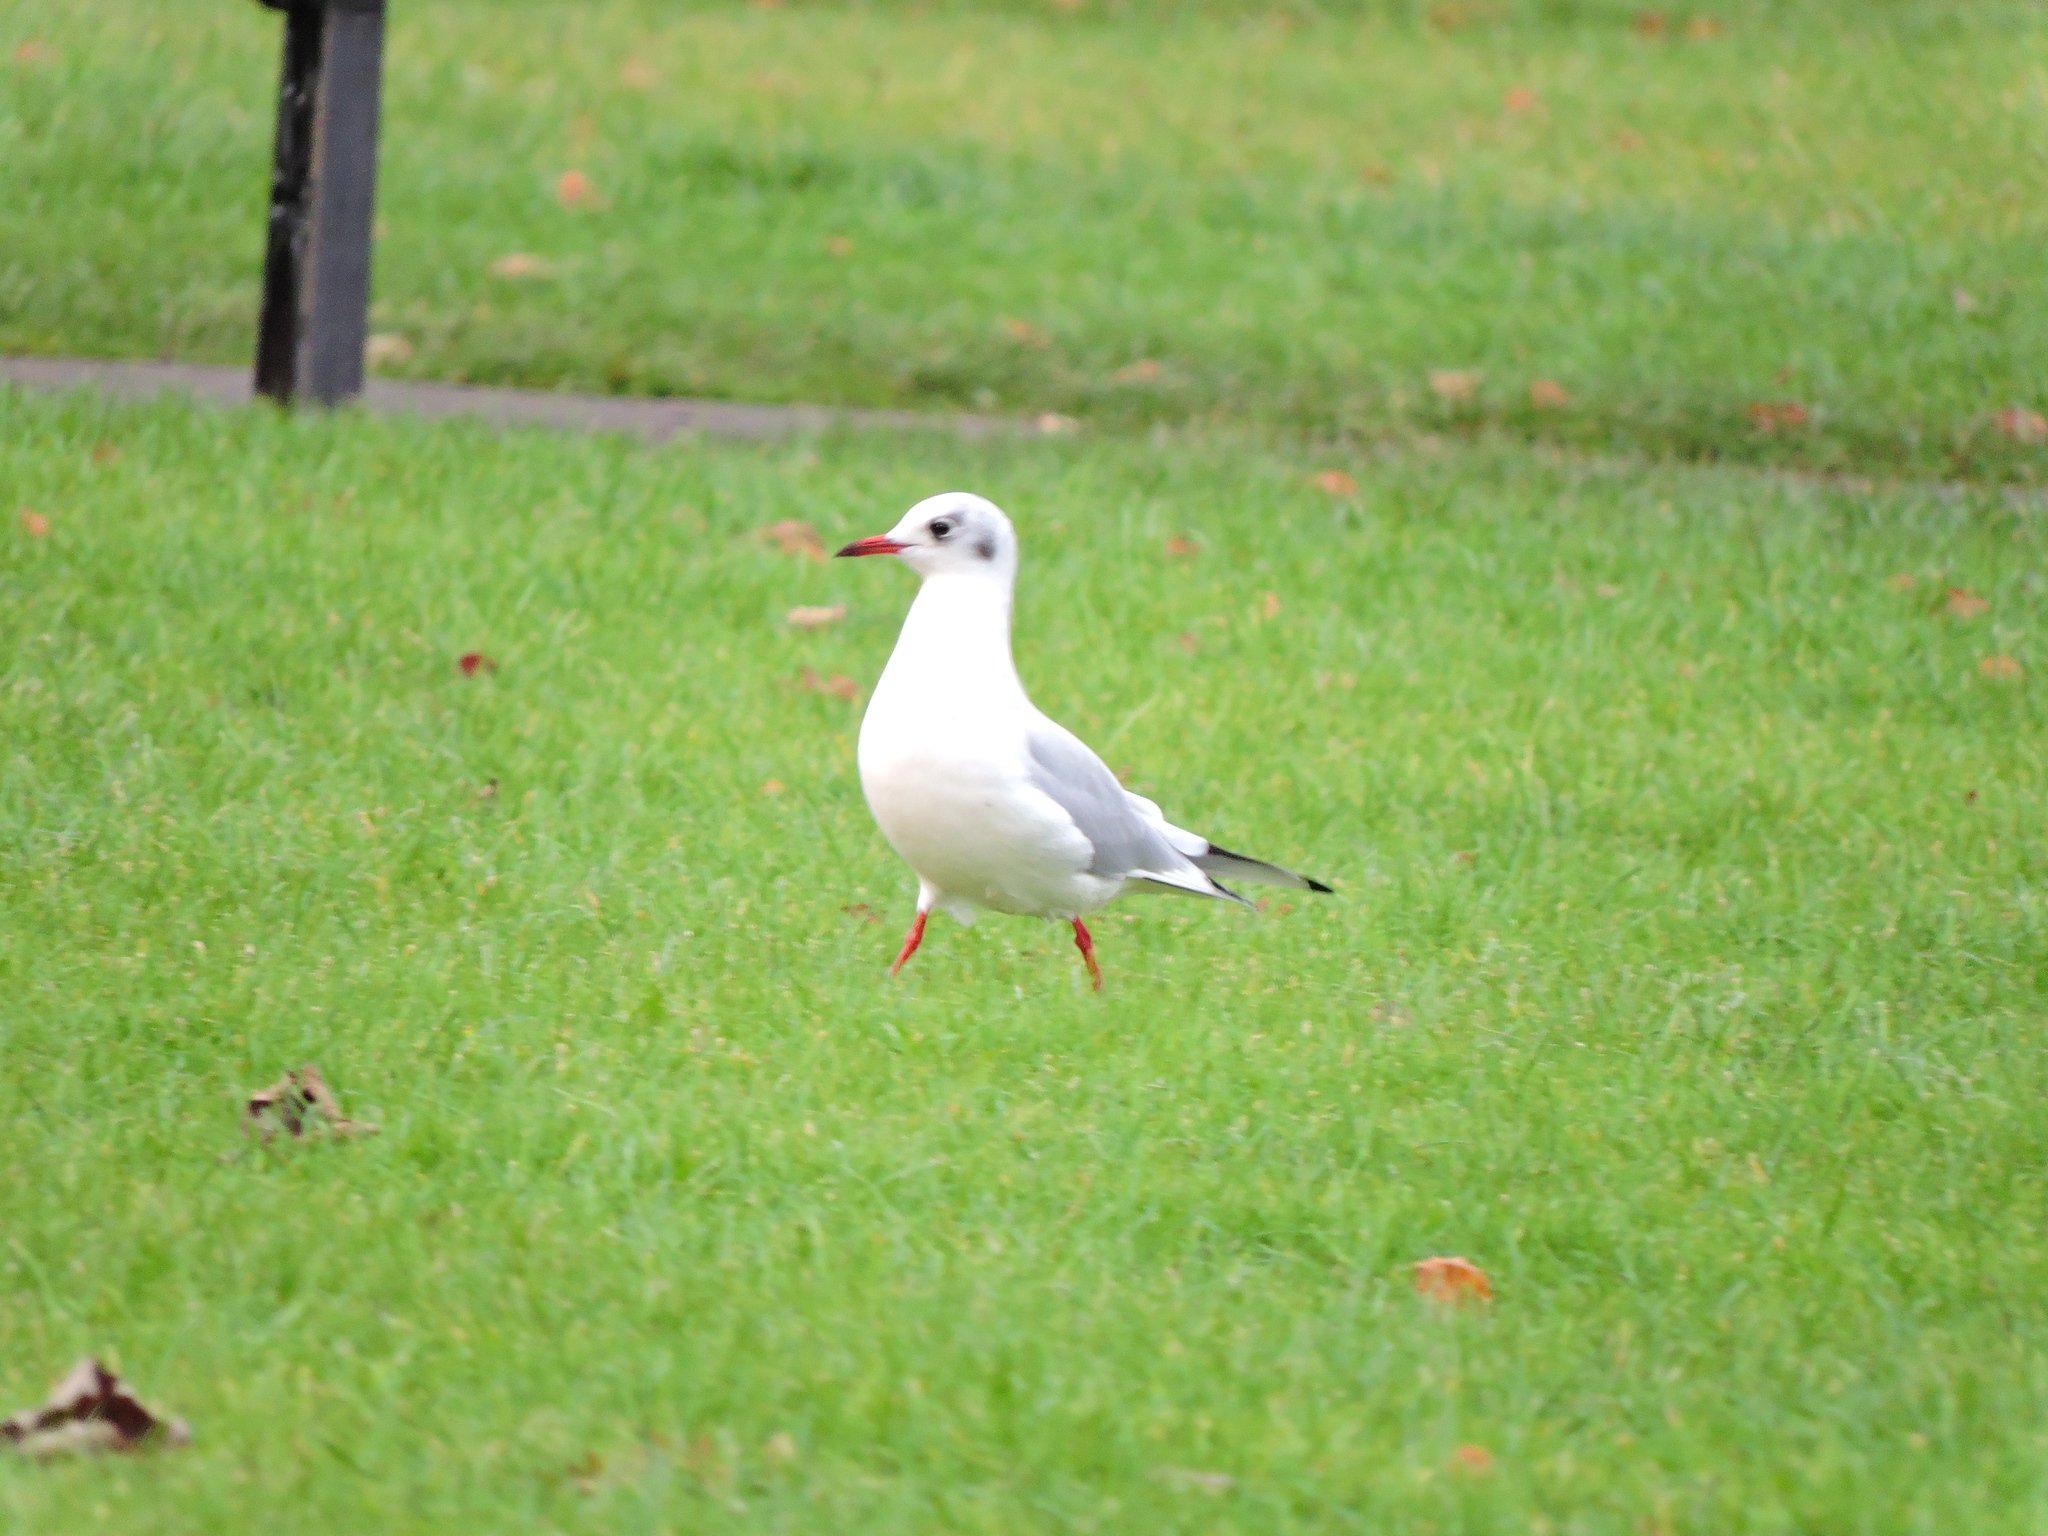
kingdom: Animalia
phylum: Chordata
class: Aves
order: Charadriiformes
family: Laridae
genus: Chroicocephalus
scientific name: Chroicocephalus ridibundus
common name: Black-headed gull
